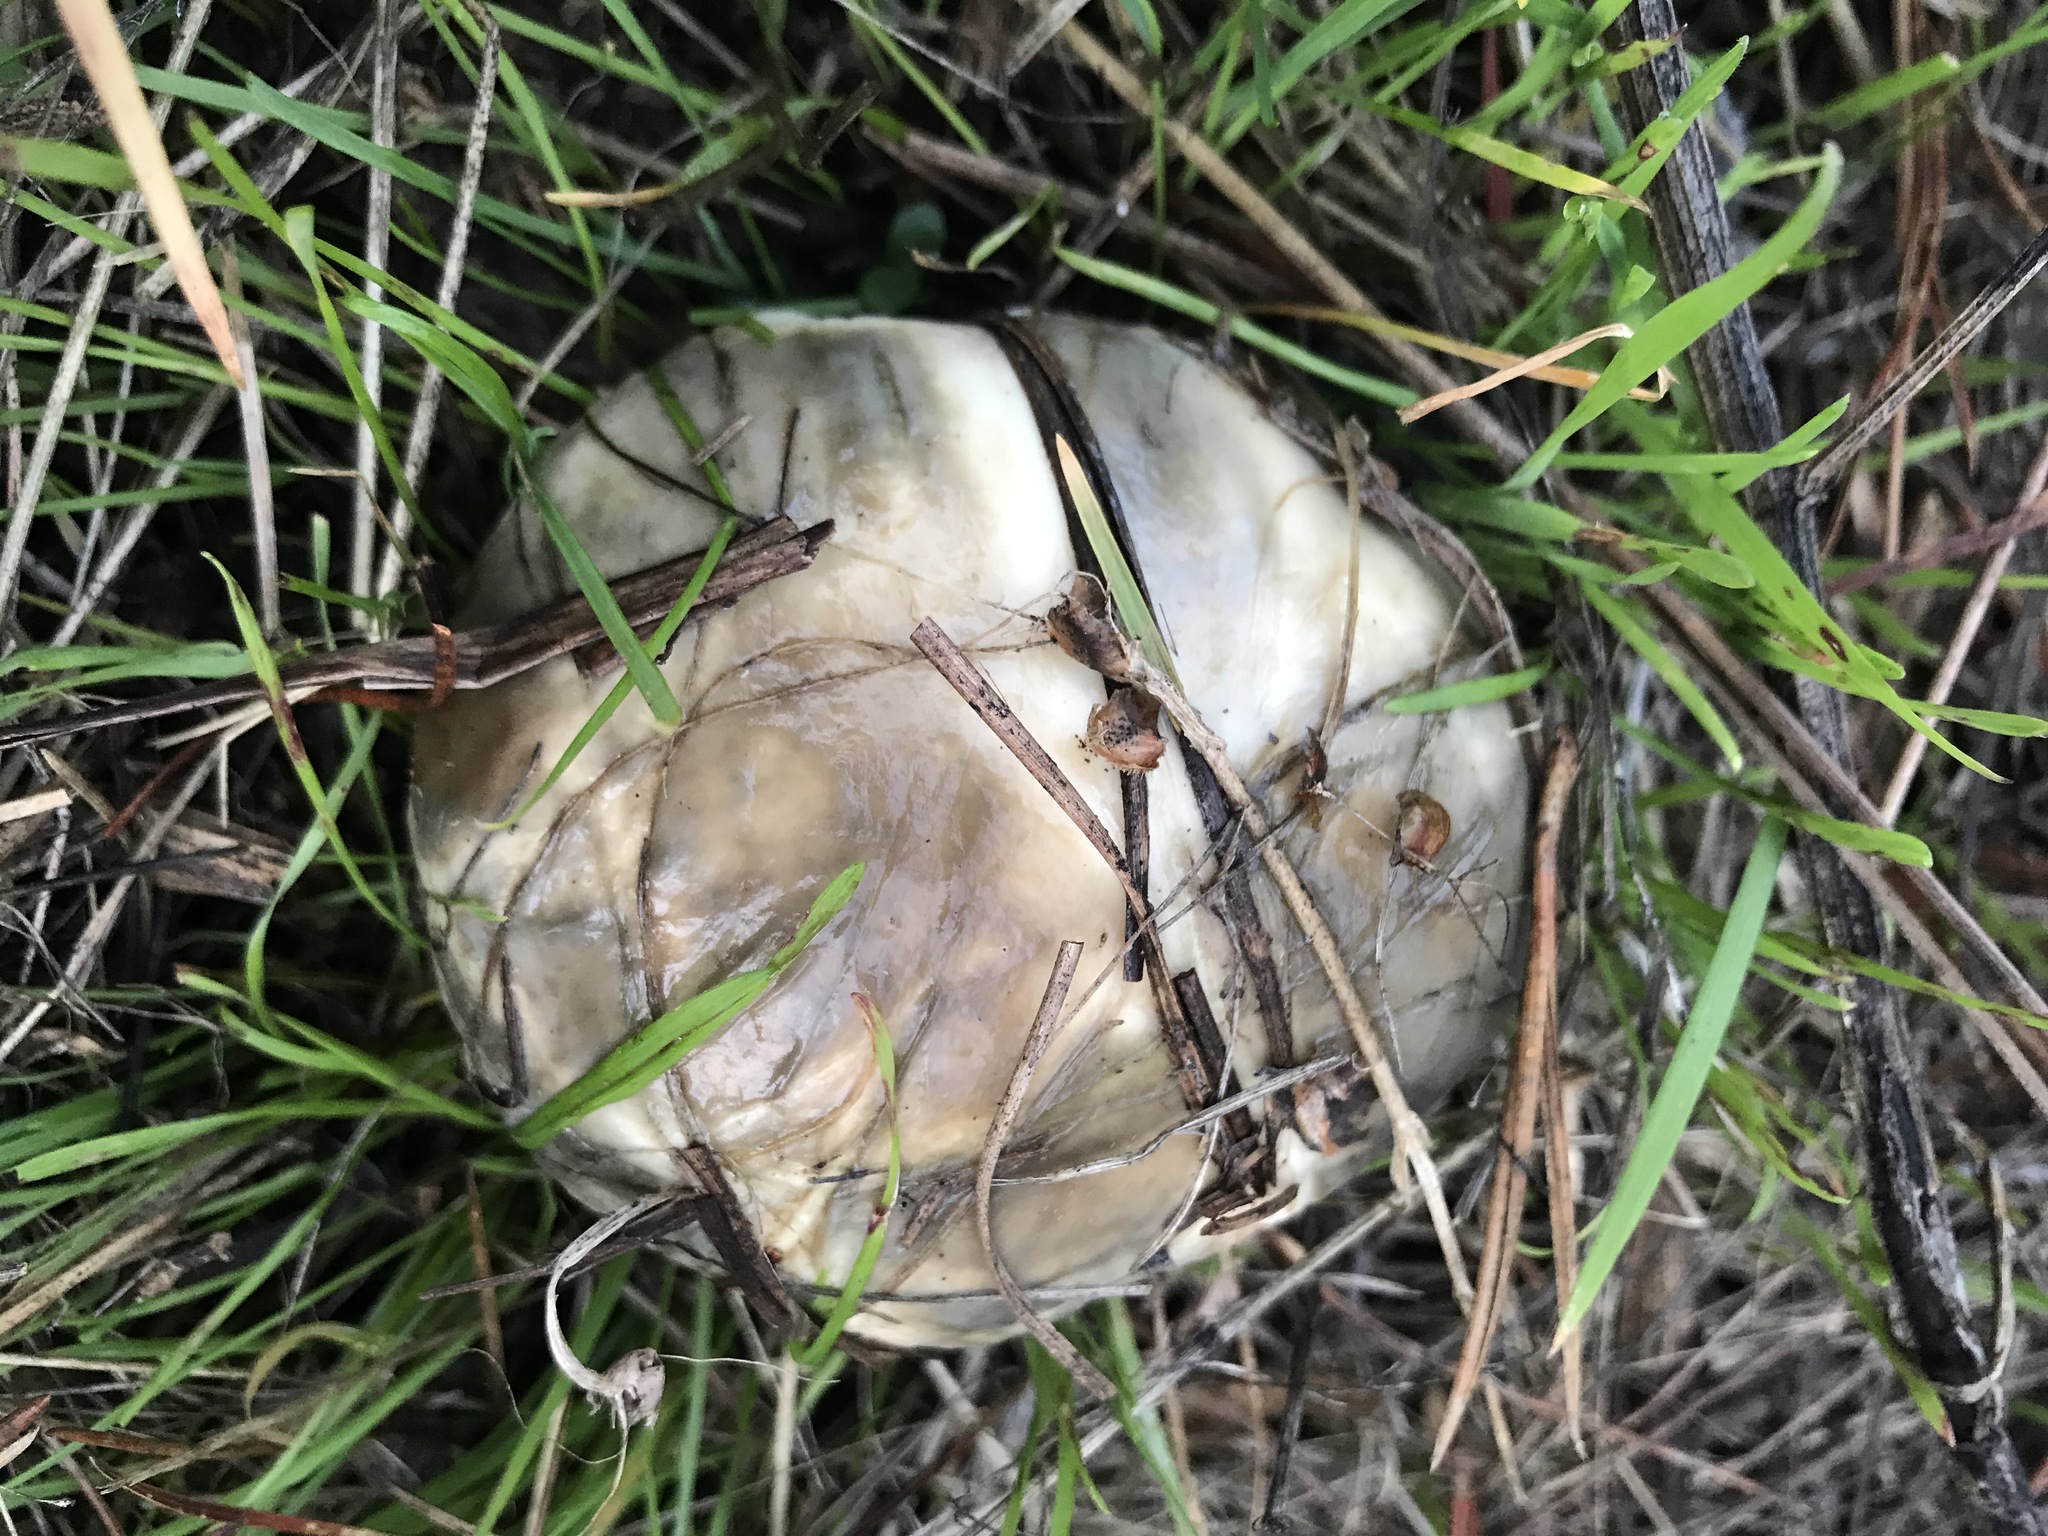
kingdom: Fungi
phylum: Basidiomycota
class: Agaricomycetes
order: Boletales
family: Suillaceae
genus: Suillus
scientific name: Suillus pungens
